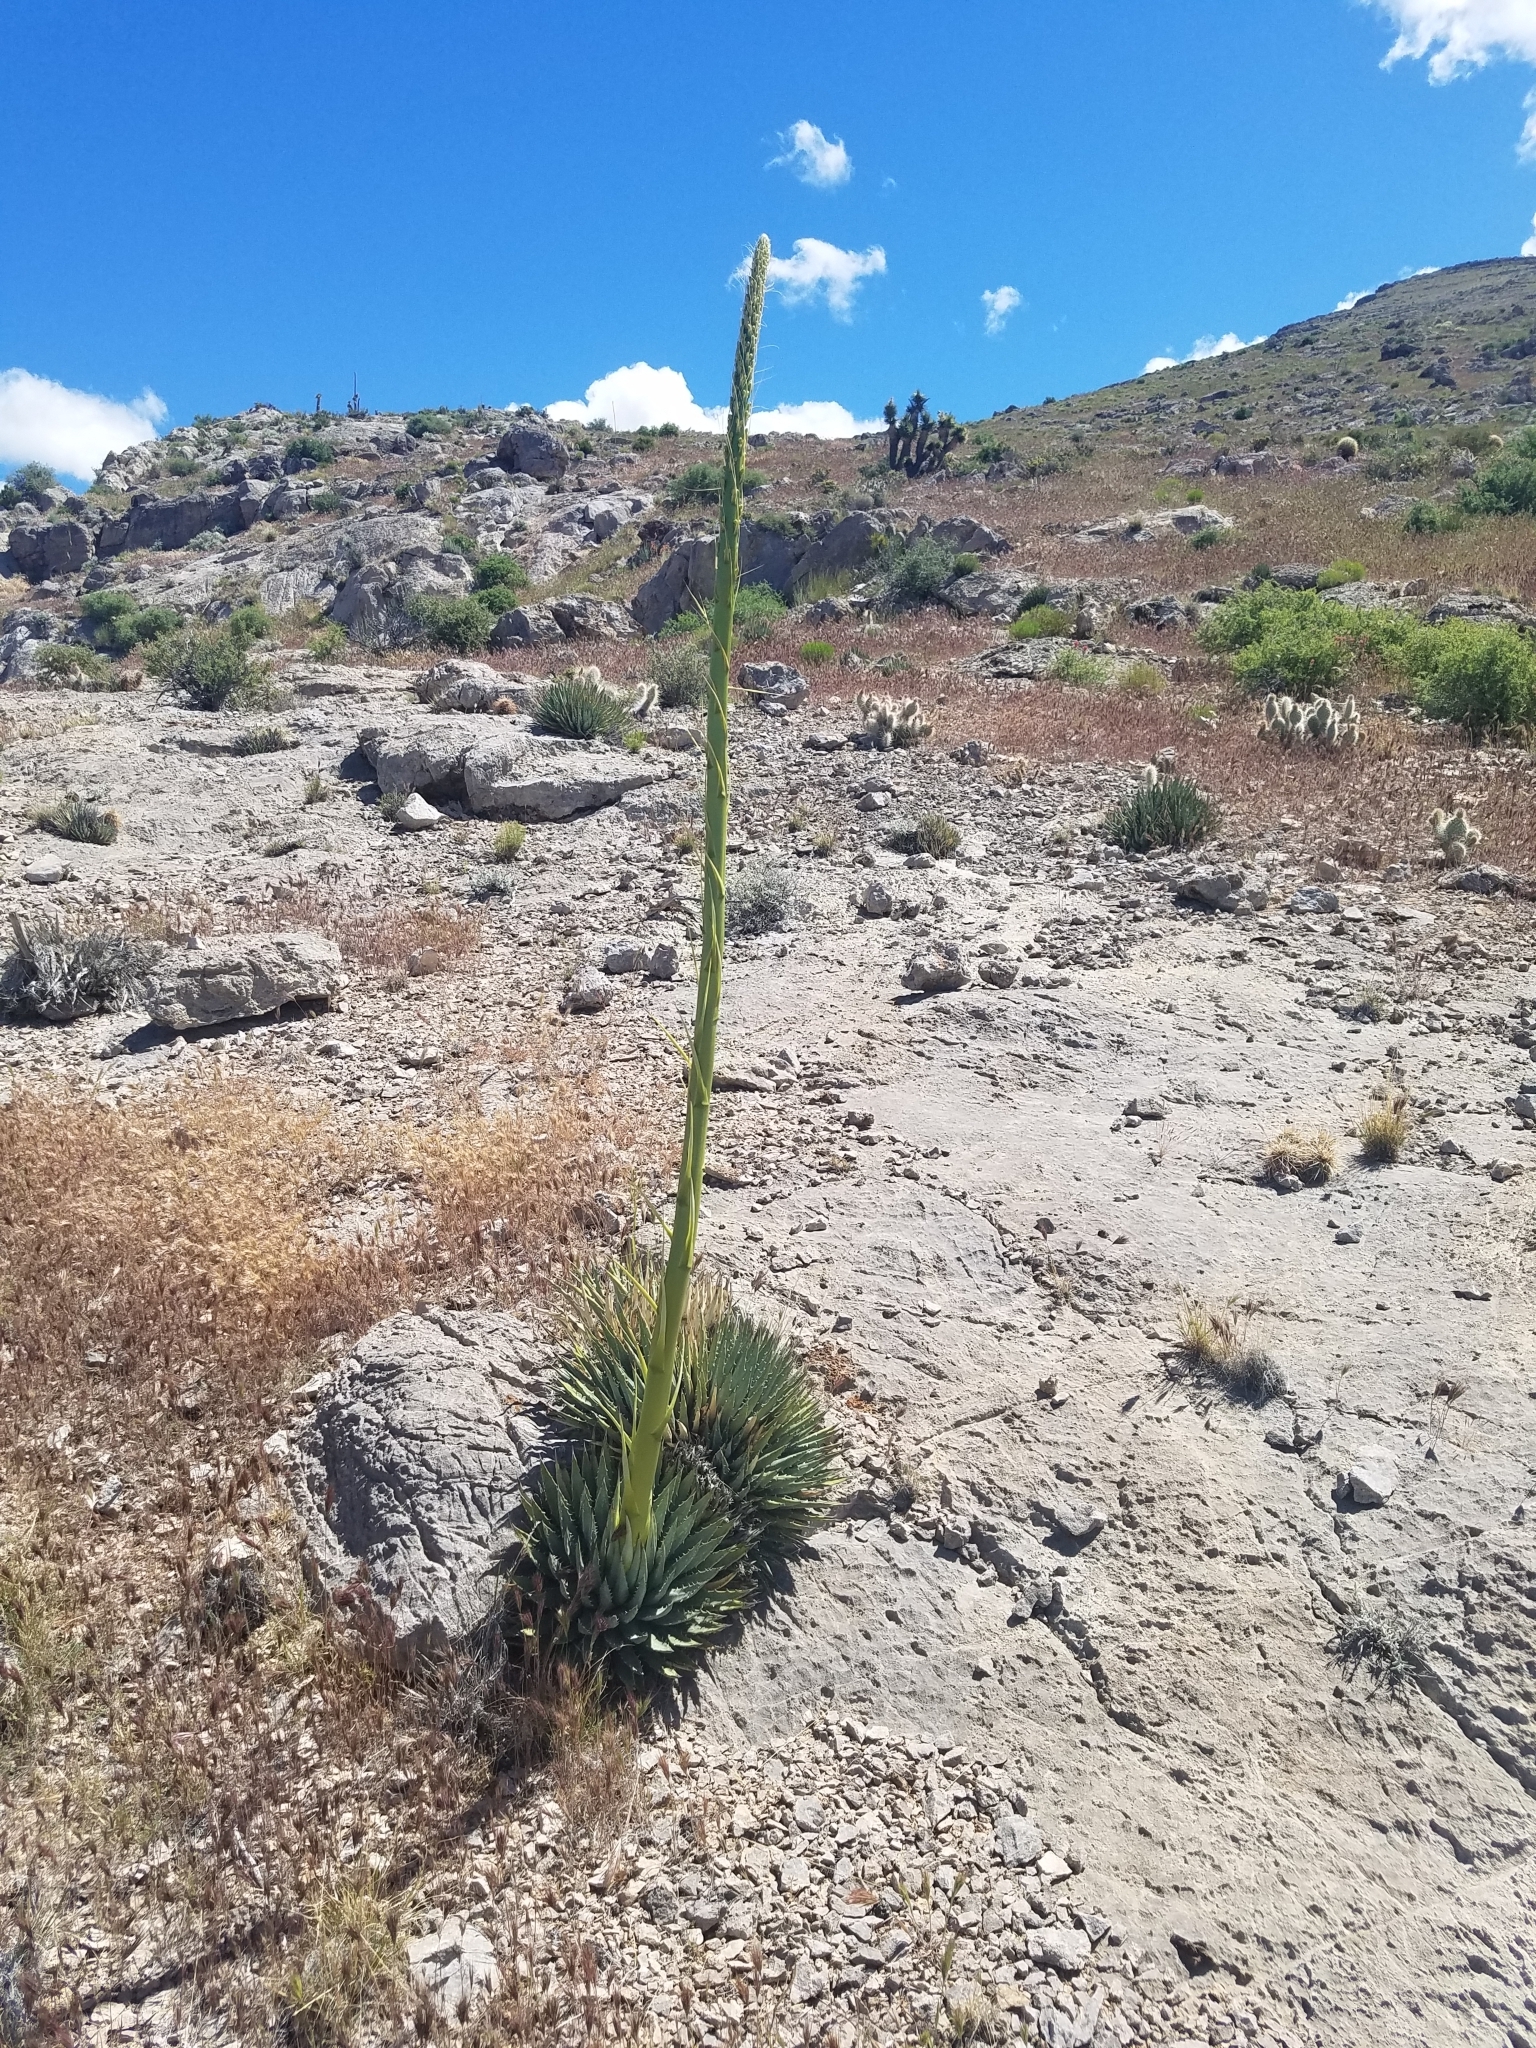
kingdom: Plantae
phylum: Tracheophyta
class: Liliopsida
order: Asparagales
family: Asparagaceae
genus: Agave
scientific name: Agave utahensis
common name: Utah agave
